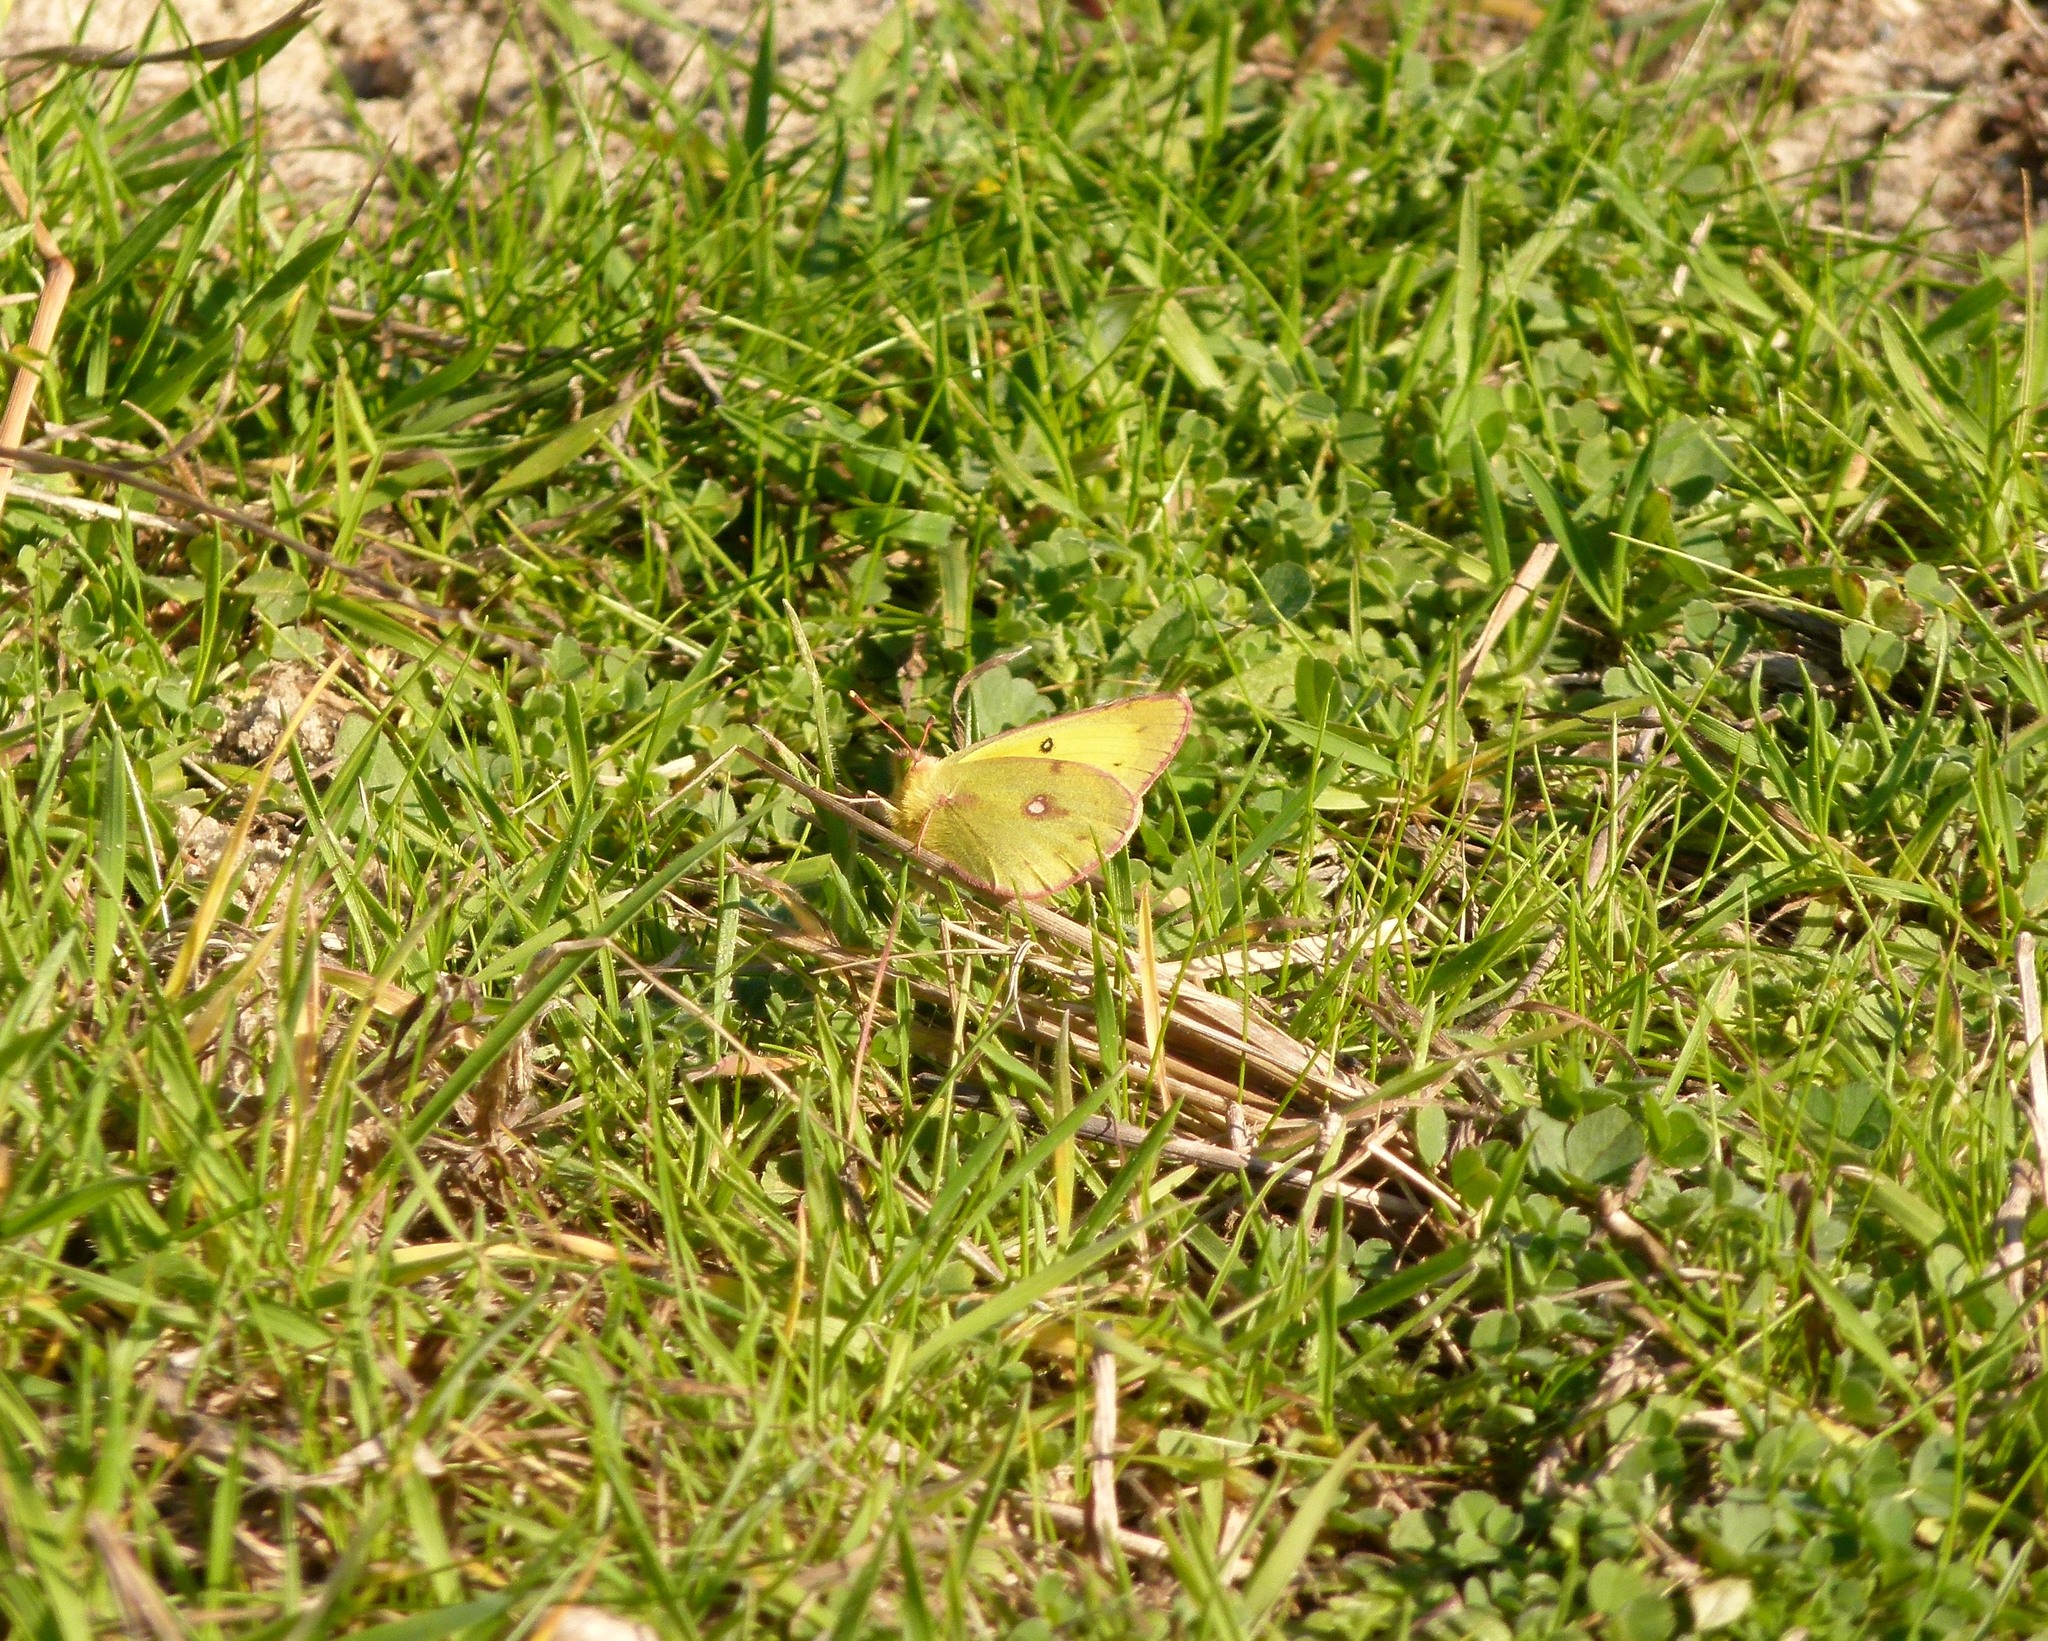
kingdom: Animalia
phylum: Arthropoda
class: Insecta
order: Lepidoptera
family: Pieridae
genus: Colias
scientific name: Colias philodice
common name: Clouded sulphur
